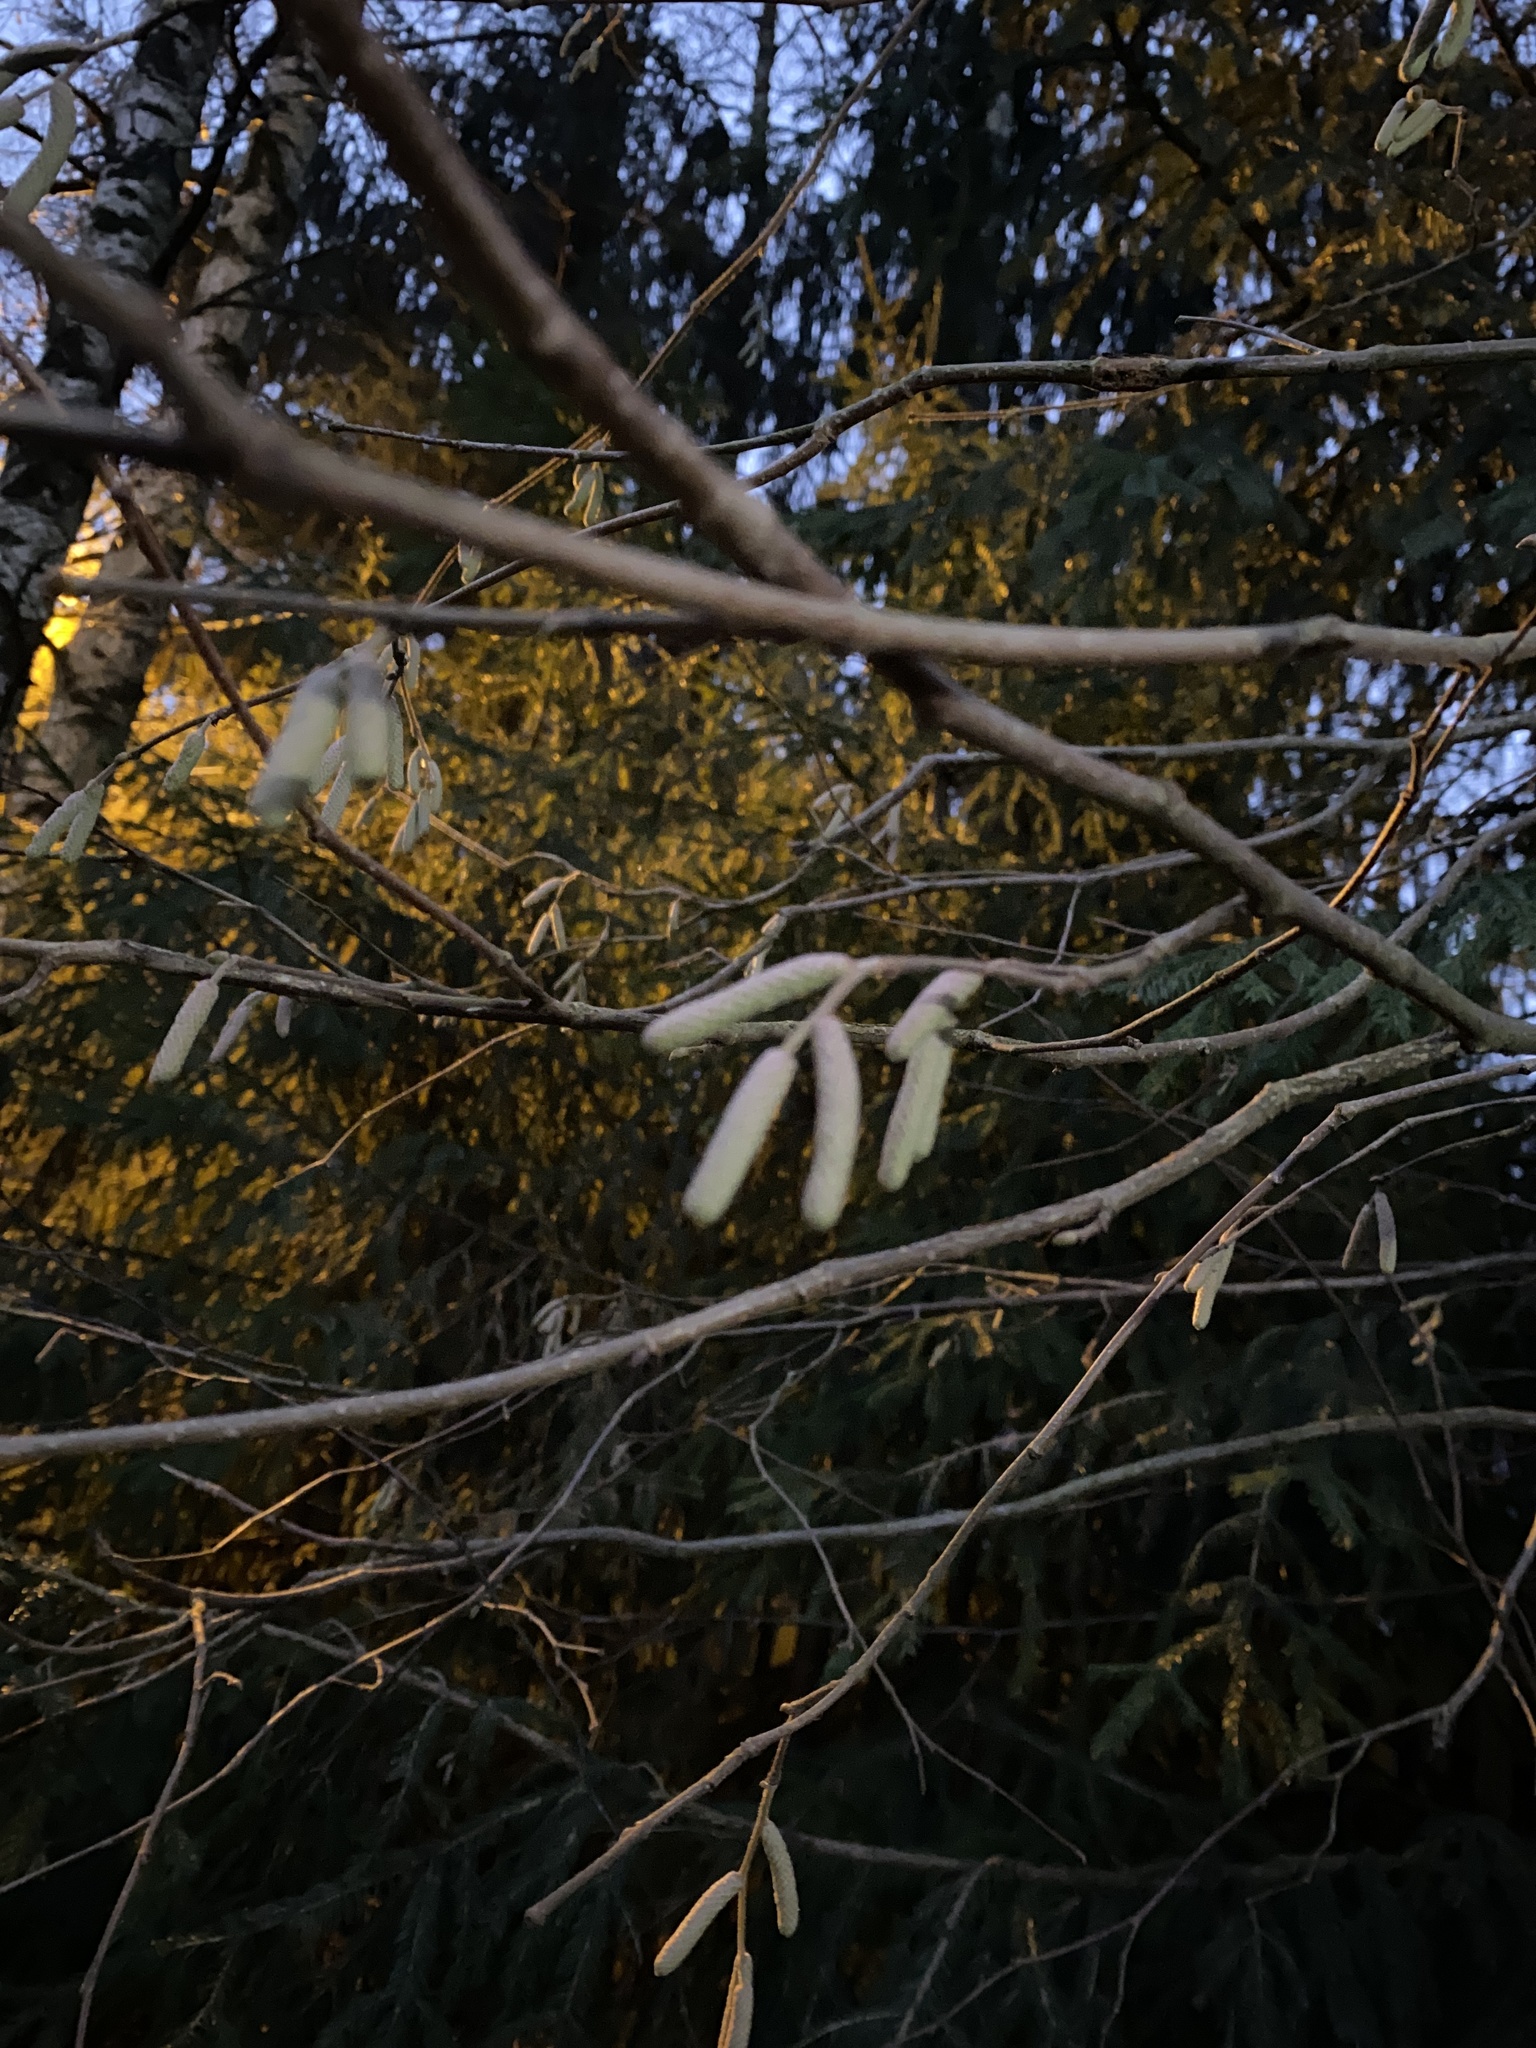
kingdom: Plantae
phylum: Tracheophyta
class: Magnoliopsida
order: Fagales
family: Betulaceae
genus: Corylus
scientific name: Corylus avellana
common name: European hazel
